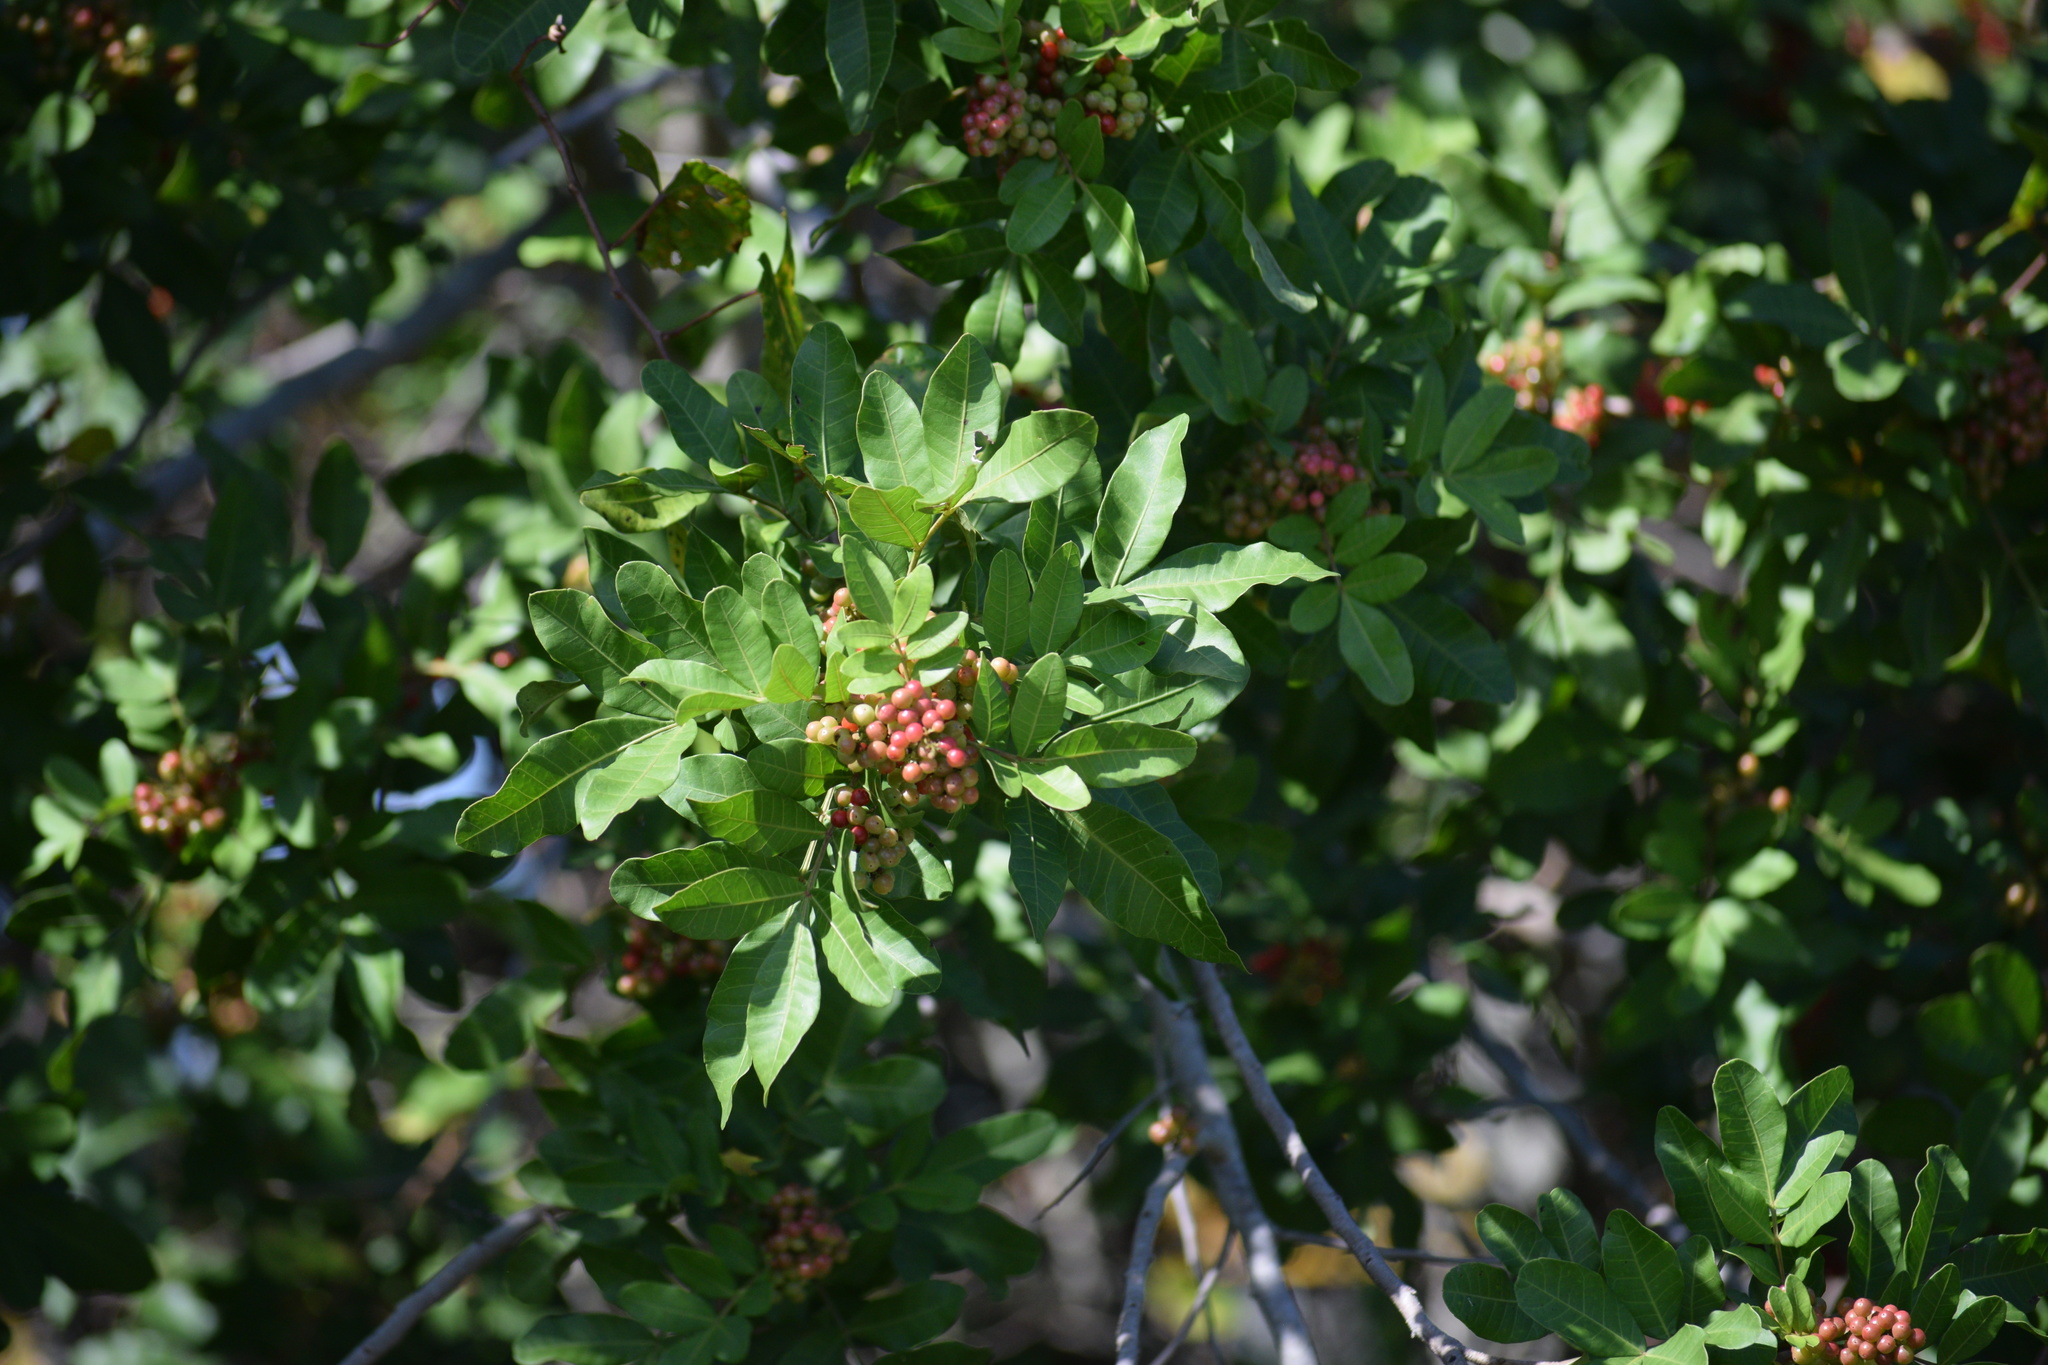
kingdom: Plantae
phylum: Tracheophyta
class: Magnoliopsida
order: Sapindales
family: Anacardiaceae
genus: Schinus
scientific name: Schinus terebinthifolia
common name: Brazilian peppertree
